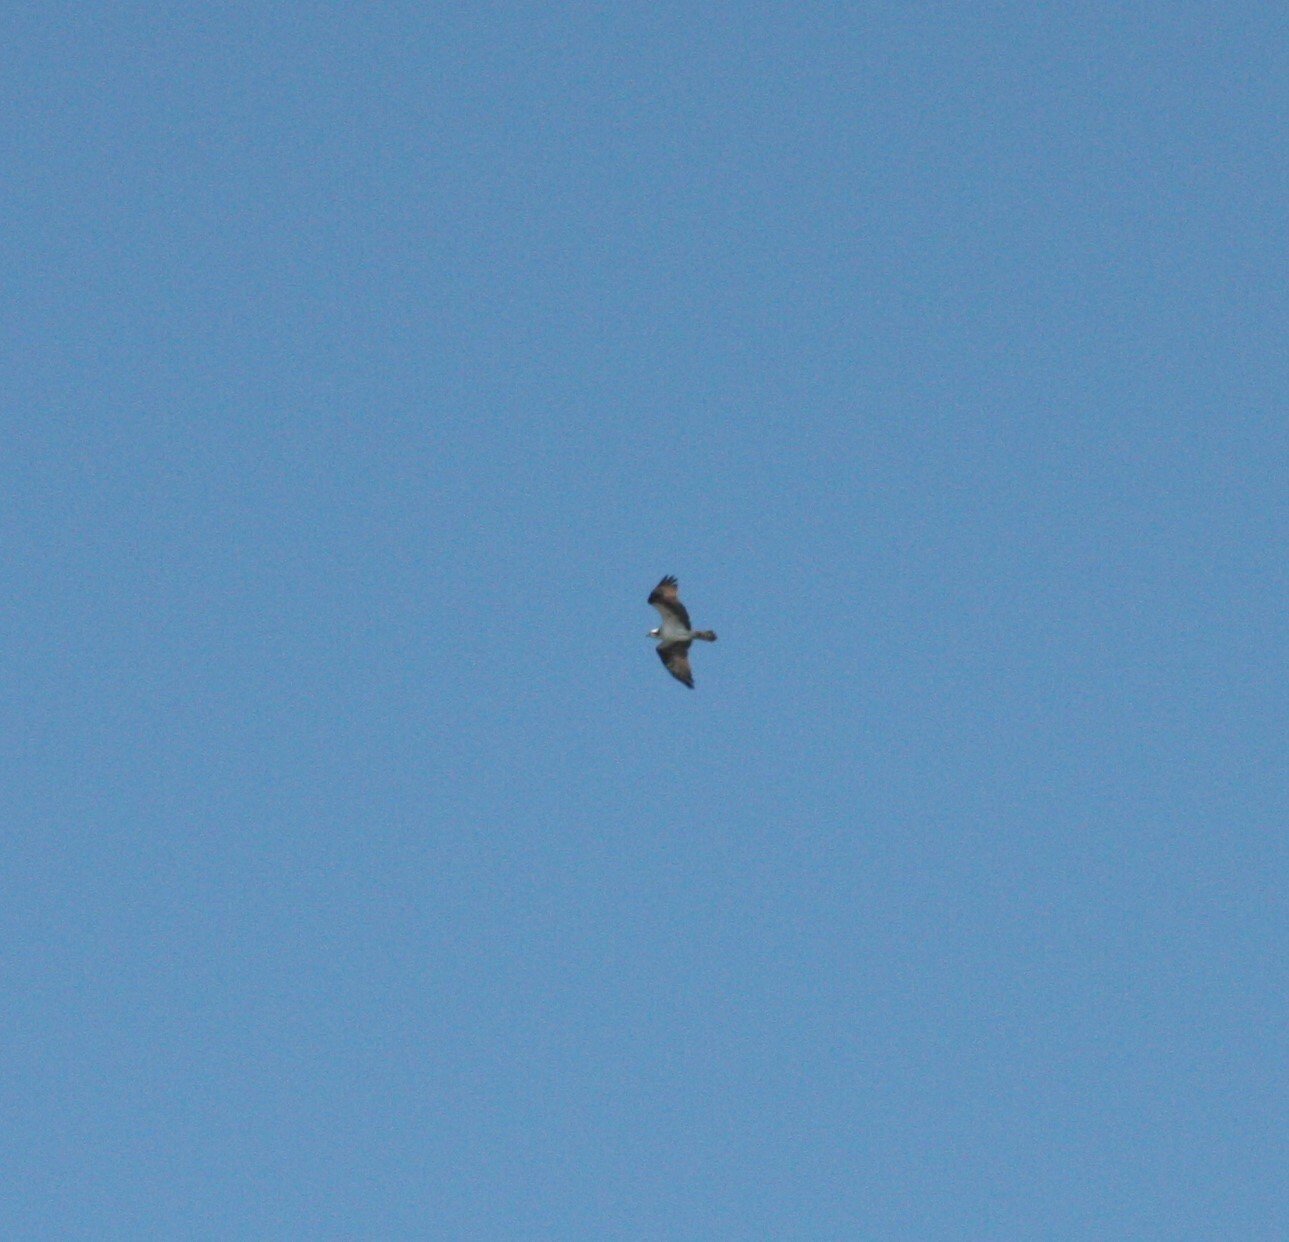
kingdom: Animalia
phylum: Chordata
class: Aves
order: Accipitriformes
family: Pandionidae
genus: Pandion
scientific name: Pandion haliaetus
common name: Osprey
